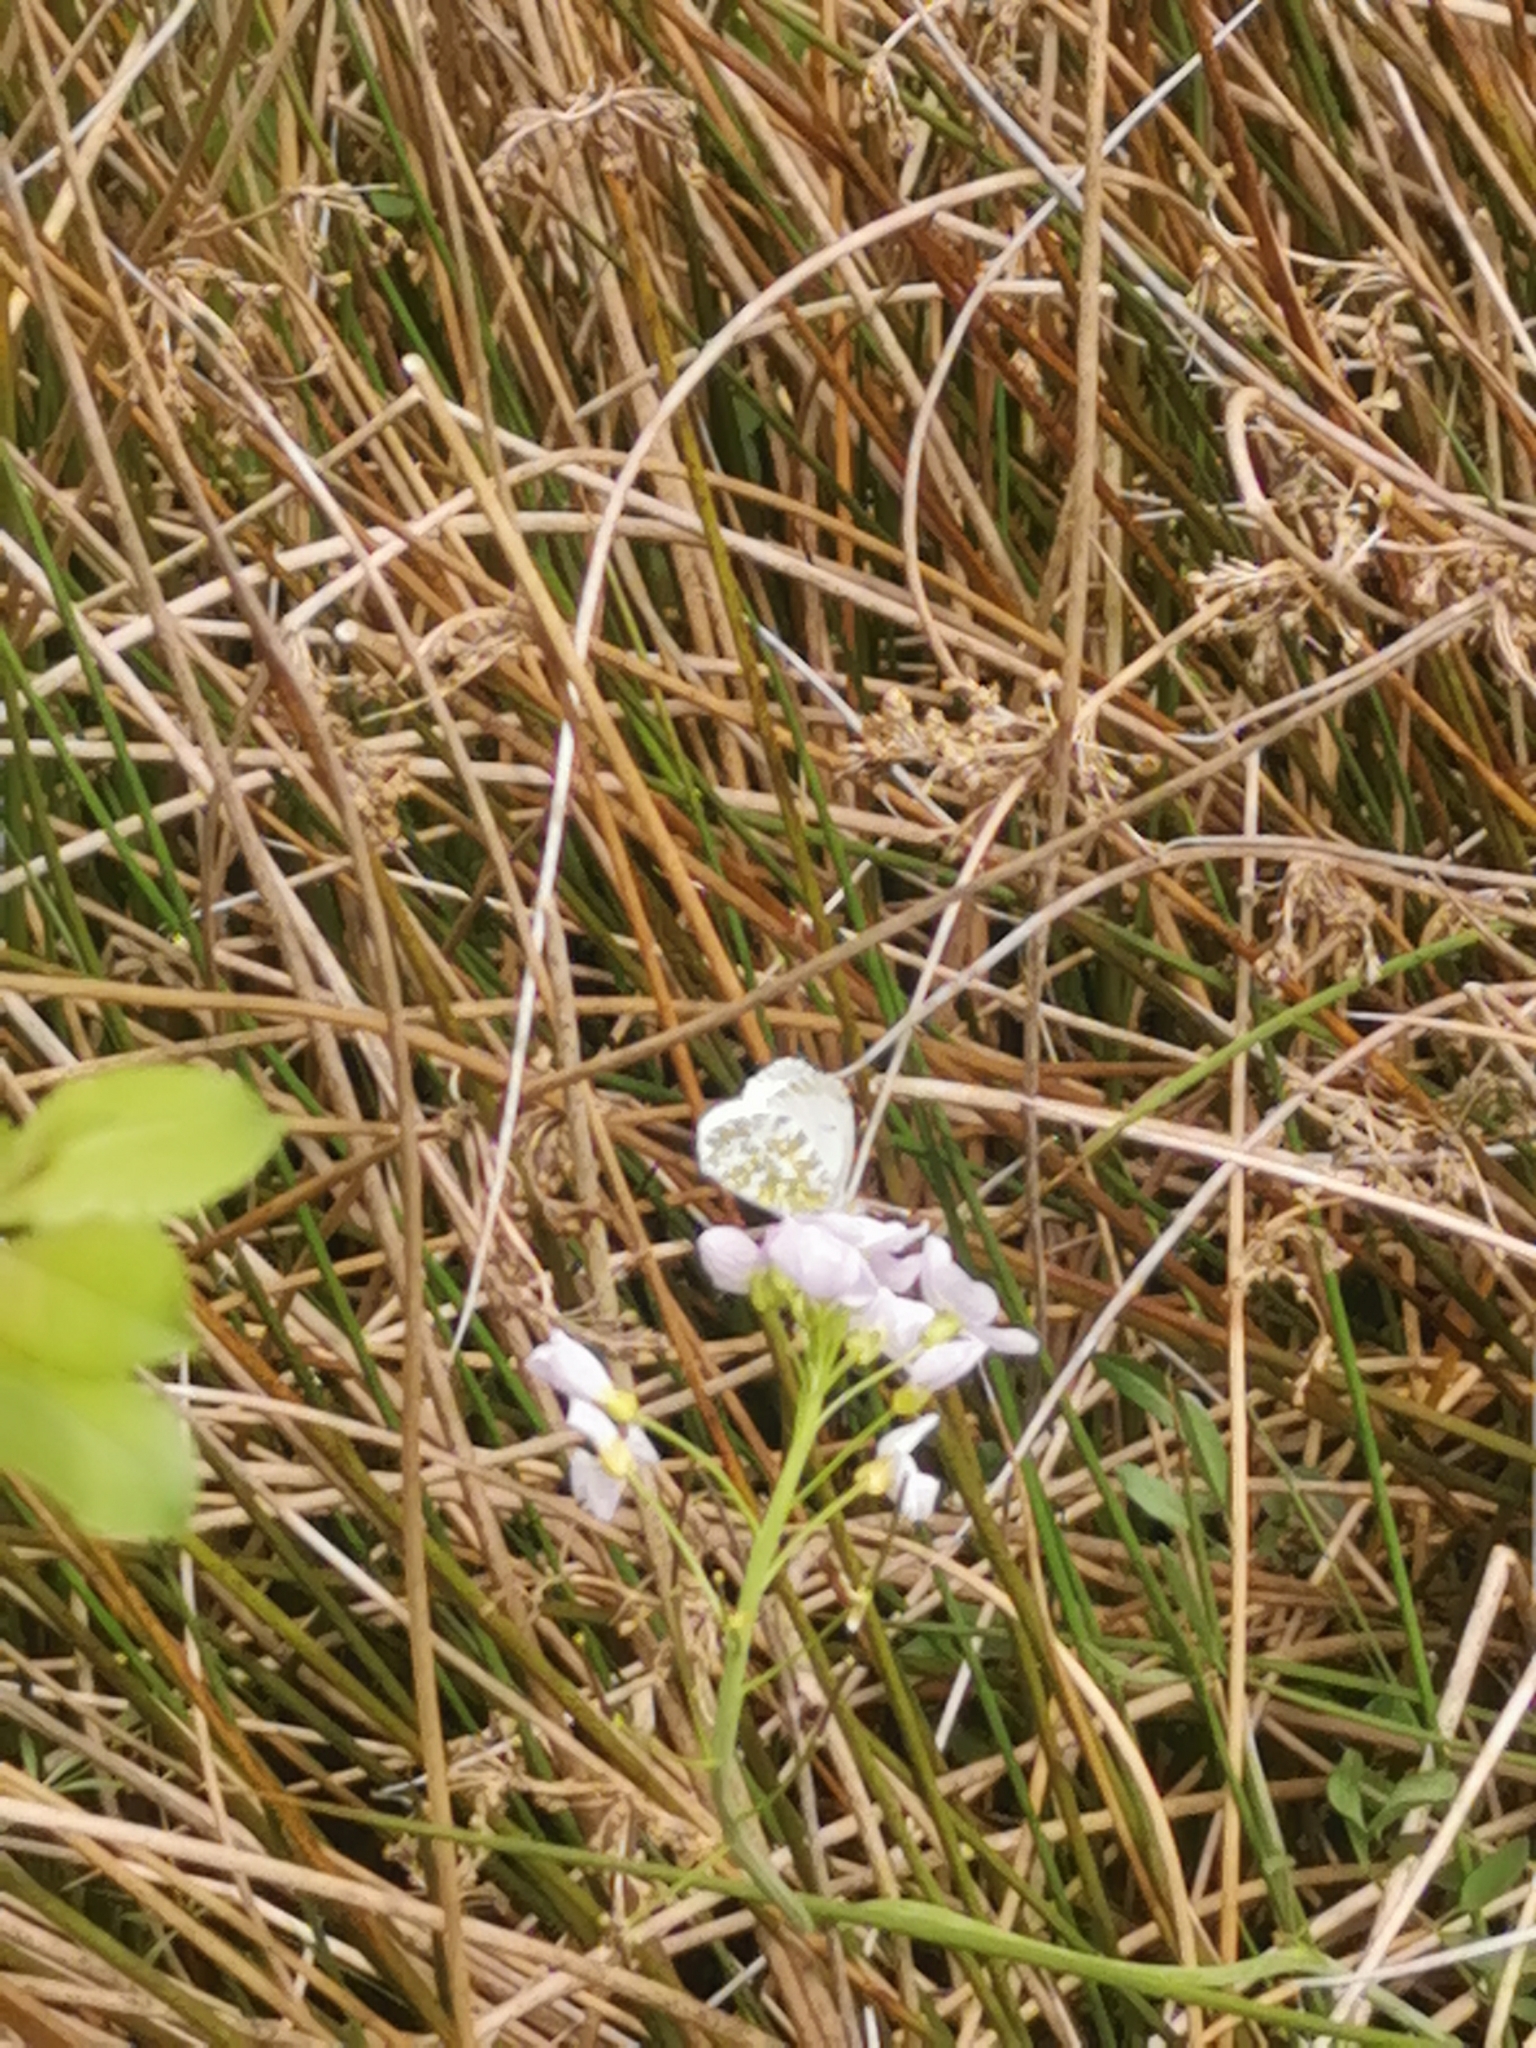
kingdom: Animalia
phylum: Arthropoda
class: Insecta
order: Lepidoptera
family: Pieridae
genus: Anthocharis
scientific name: Anthocharis cardamines
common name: Orange-tip
